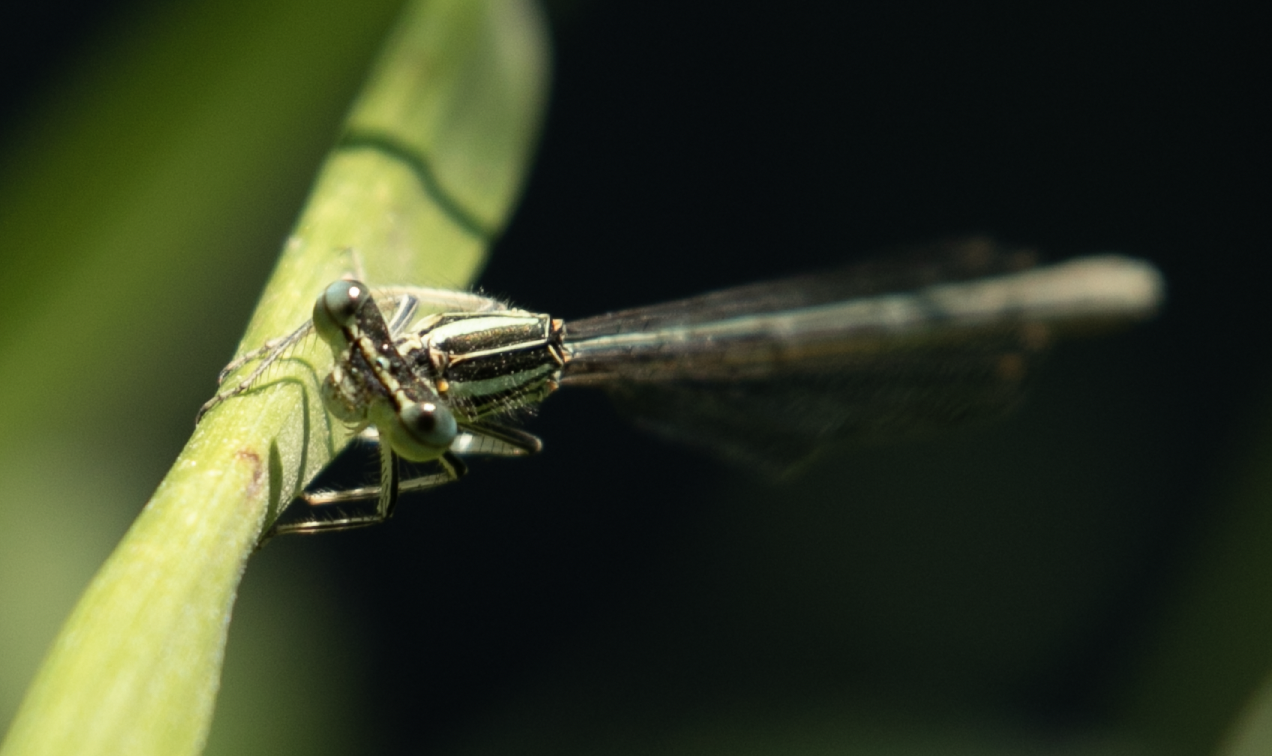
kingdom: Animalia
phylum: Arthropoda
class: Insecta
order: Odonata
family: Platycnemididae
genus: Platycnemis
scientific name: Platycnemis pennipes
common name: White-legged damselfly
